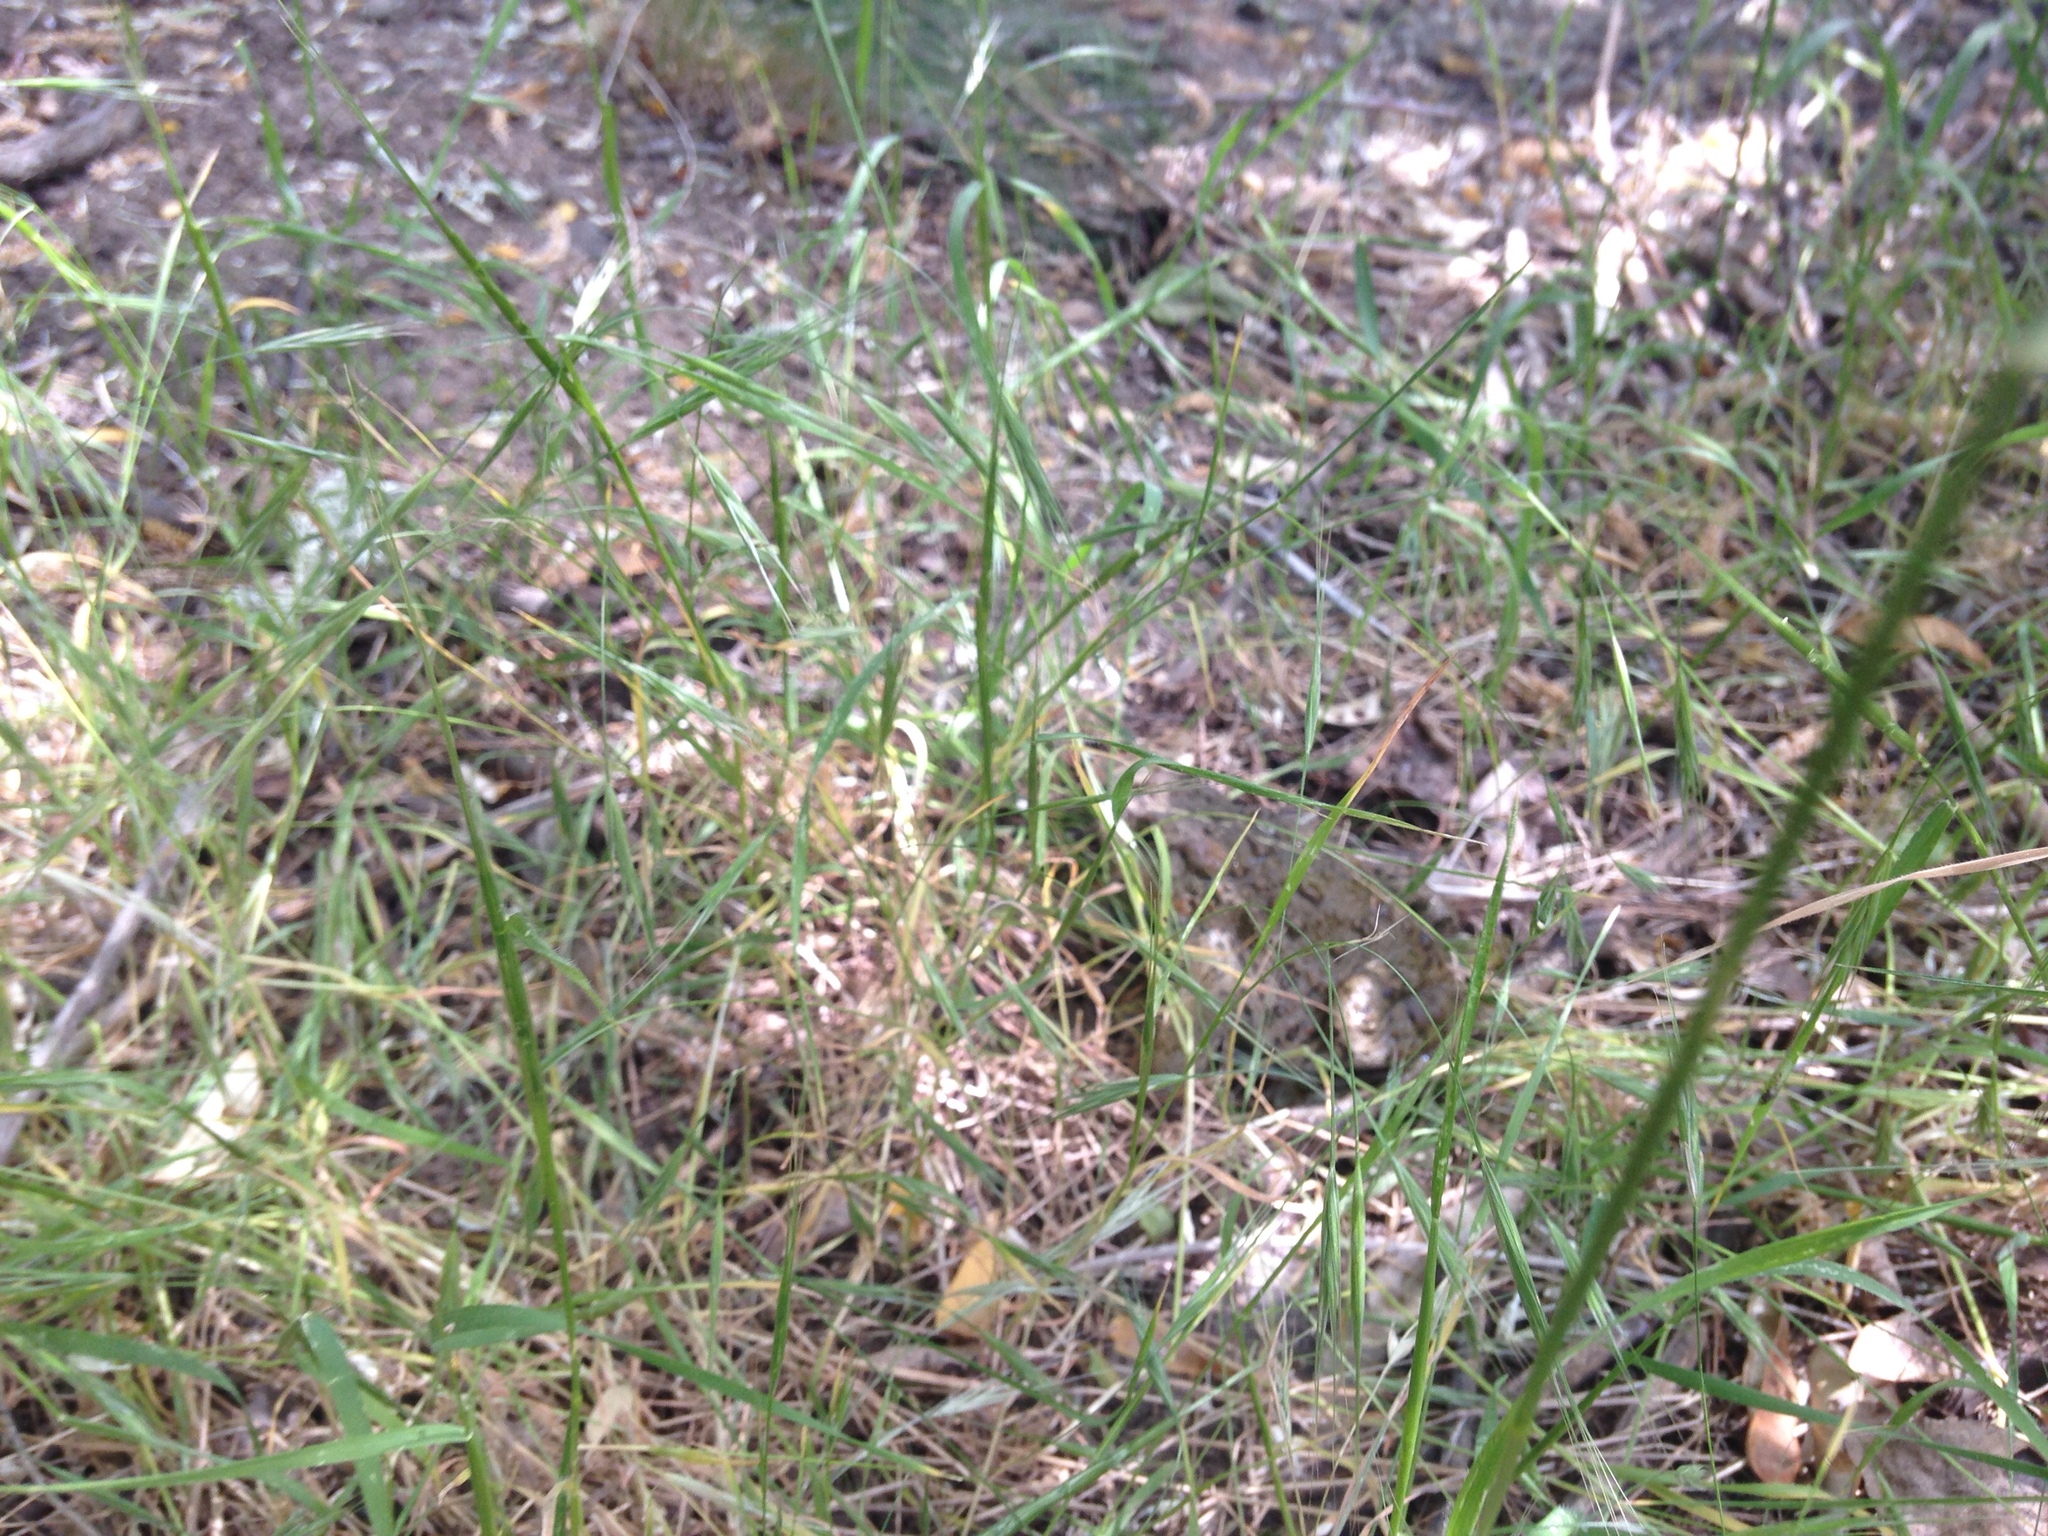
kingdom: Animalia
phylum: Chordata
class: Amphibia
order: Anura
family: Bufonidae
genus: Anaxyrus
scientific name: Anaxyrus boreas
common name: Western toad
